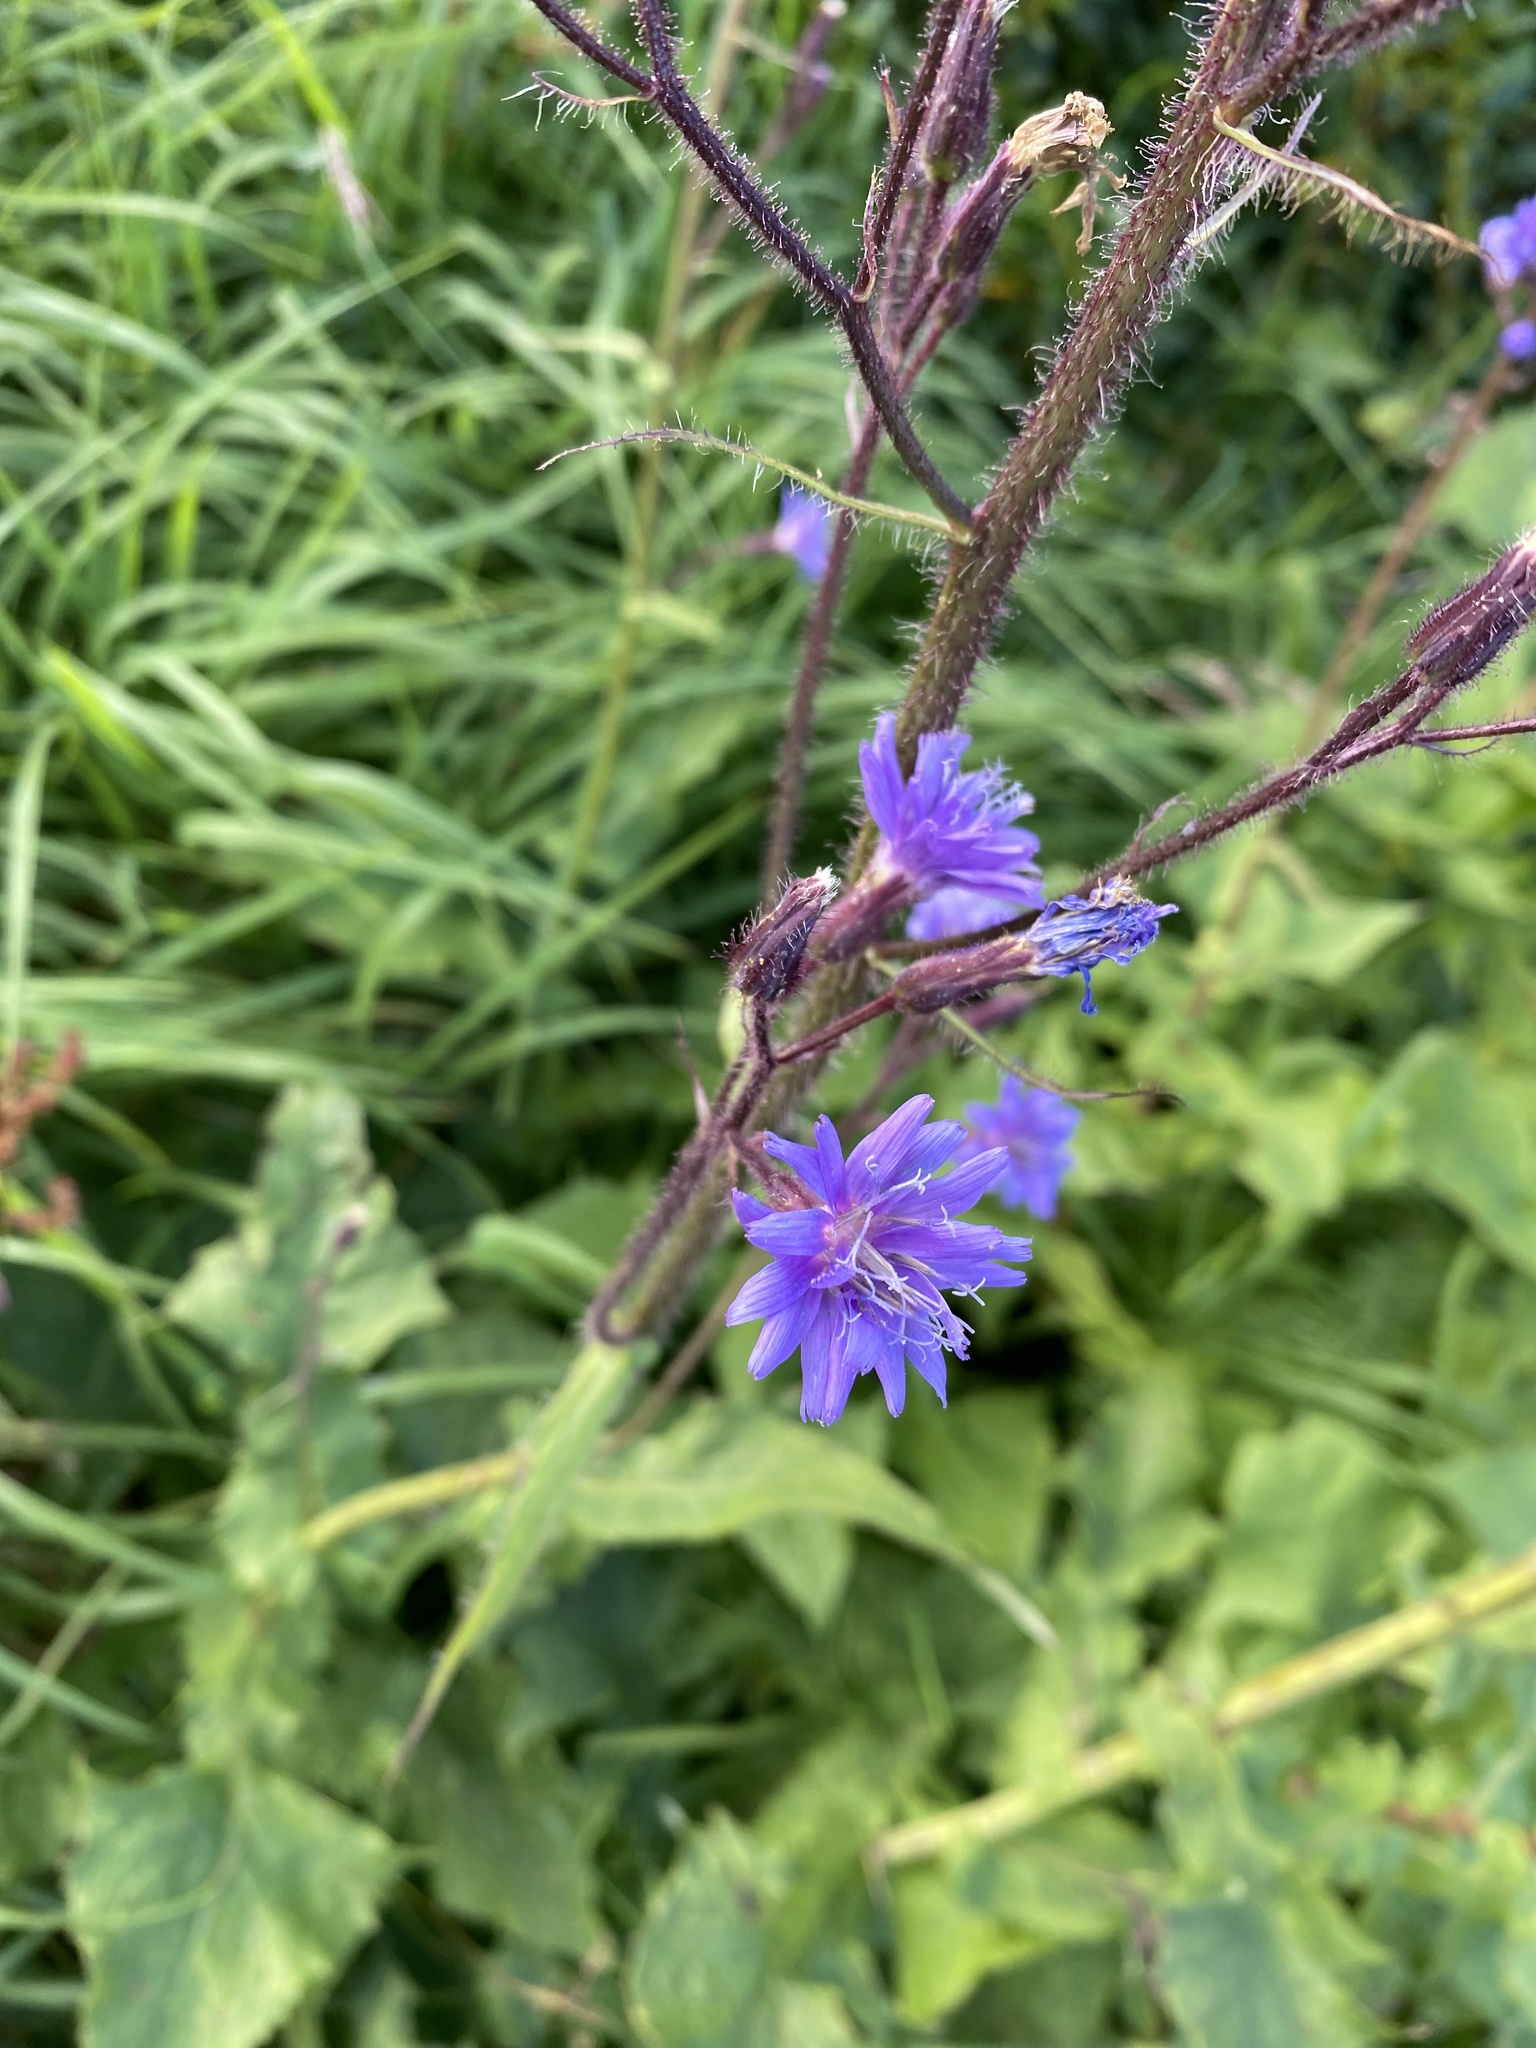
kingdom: Plantae
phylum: Tracheophyta
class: Magnoliopsida
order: Asterales
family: Asteraceae
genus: Cicerbita
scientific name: Cicerbita alpina
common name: Alpine blue-sow-thistle
